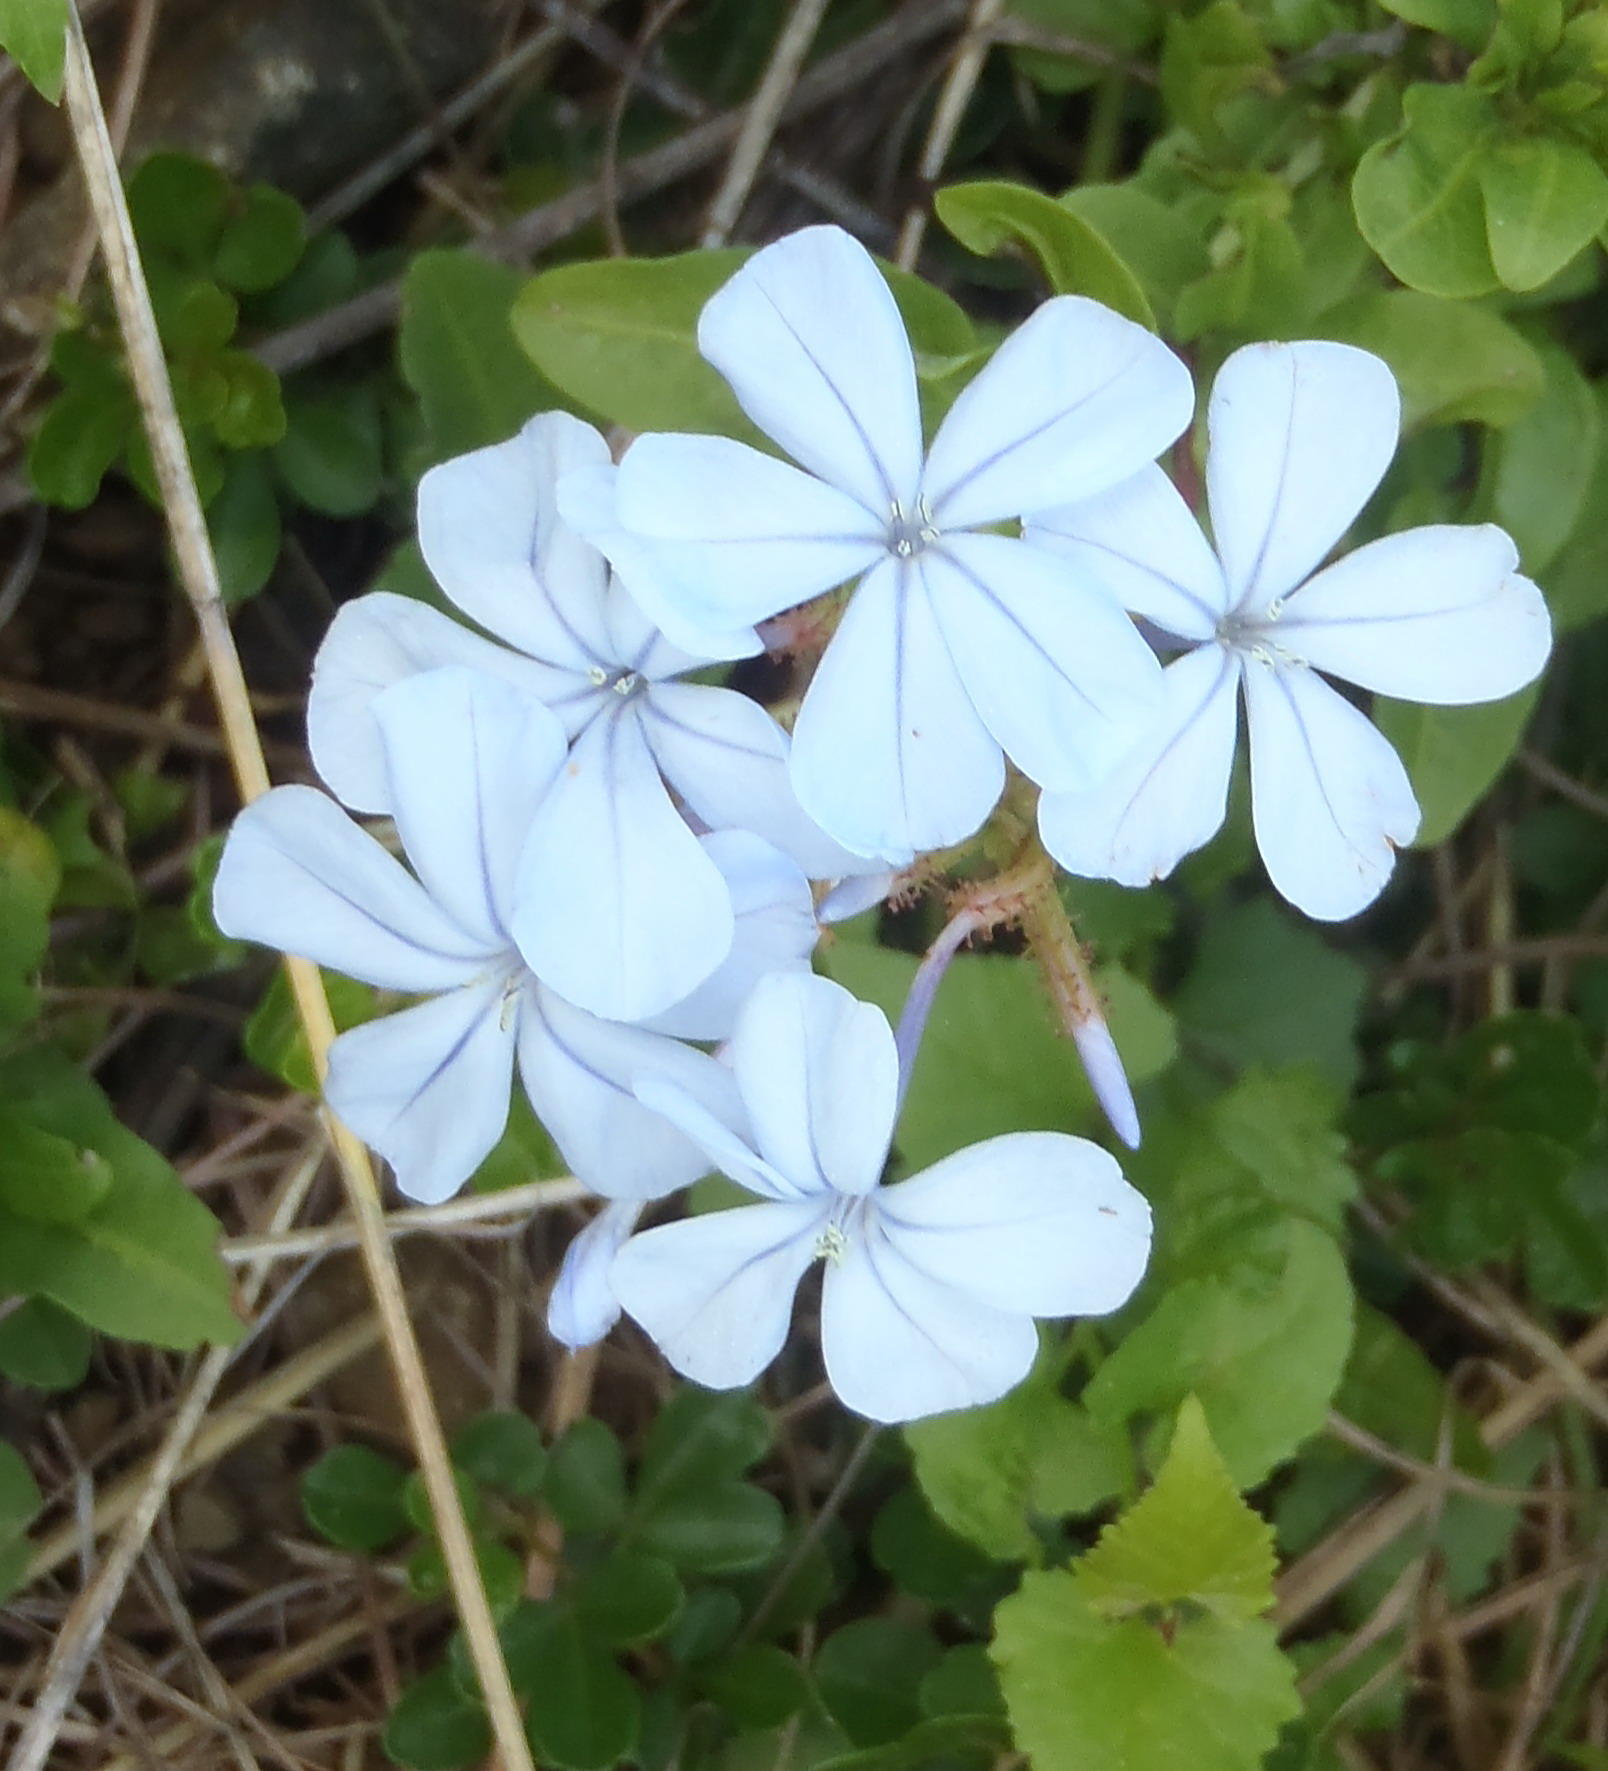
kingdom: Plantae
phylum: Tracheophyta
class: Magnoliopsida
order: Caryophyllales
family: Plumbaginaceae
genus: Plumbago
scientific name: Plumbago auriculata
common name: Cape leadwort
